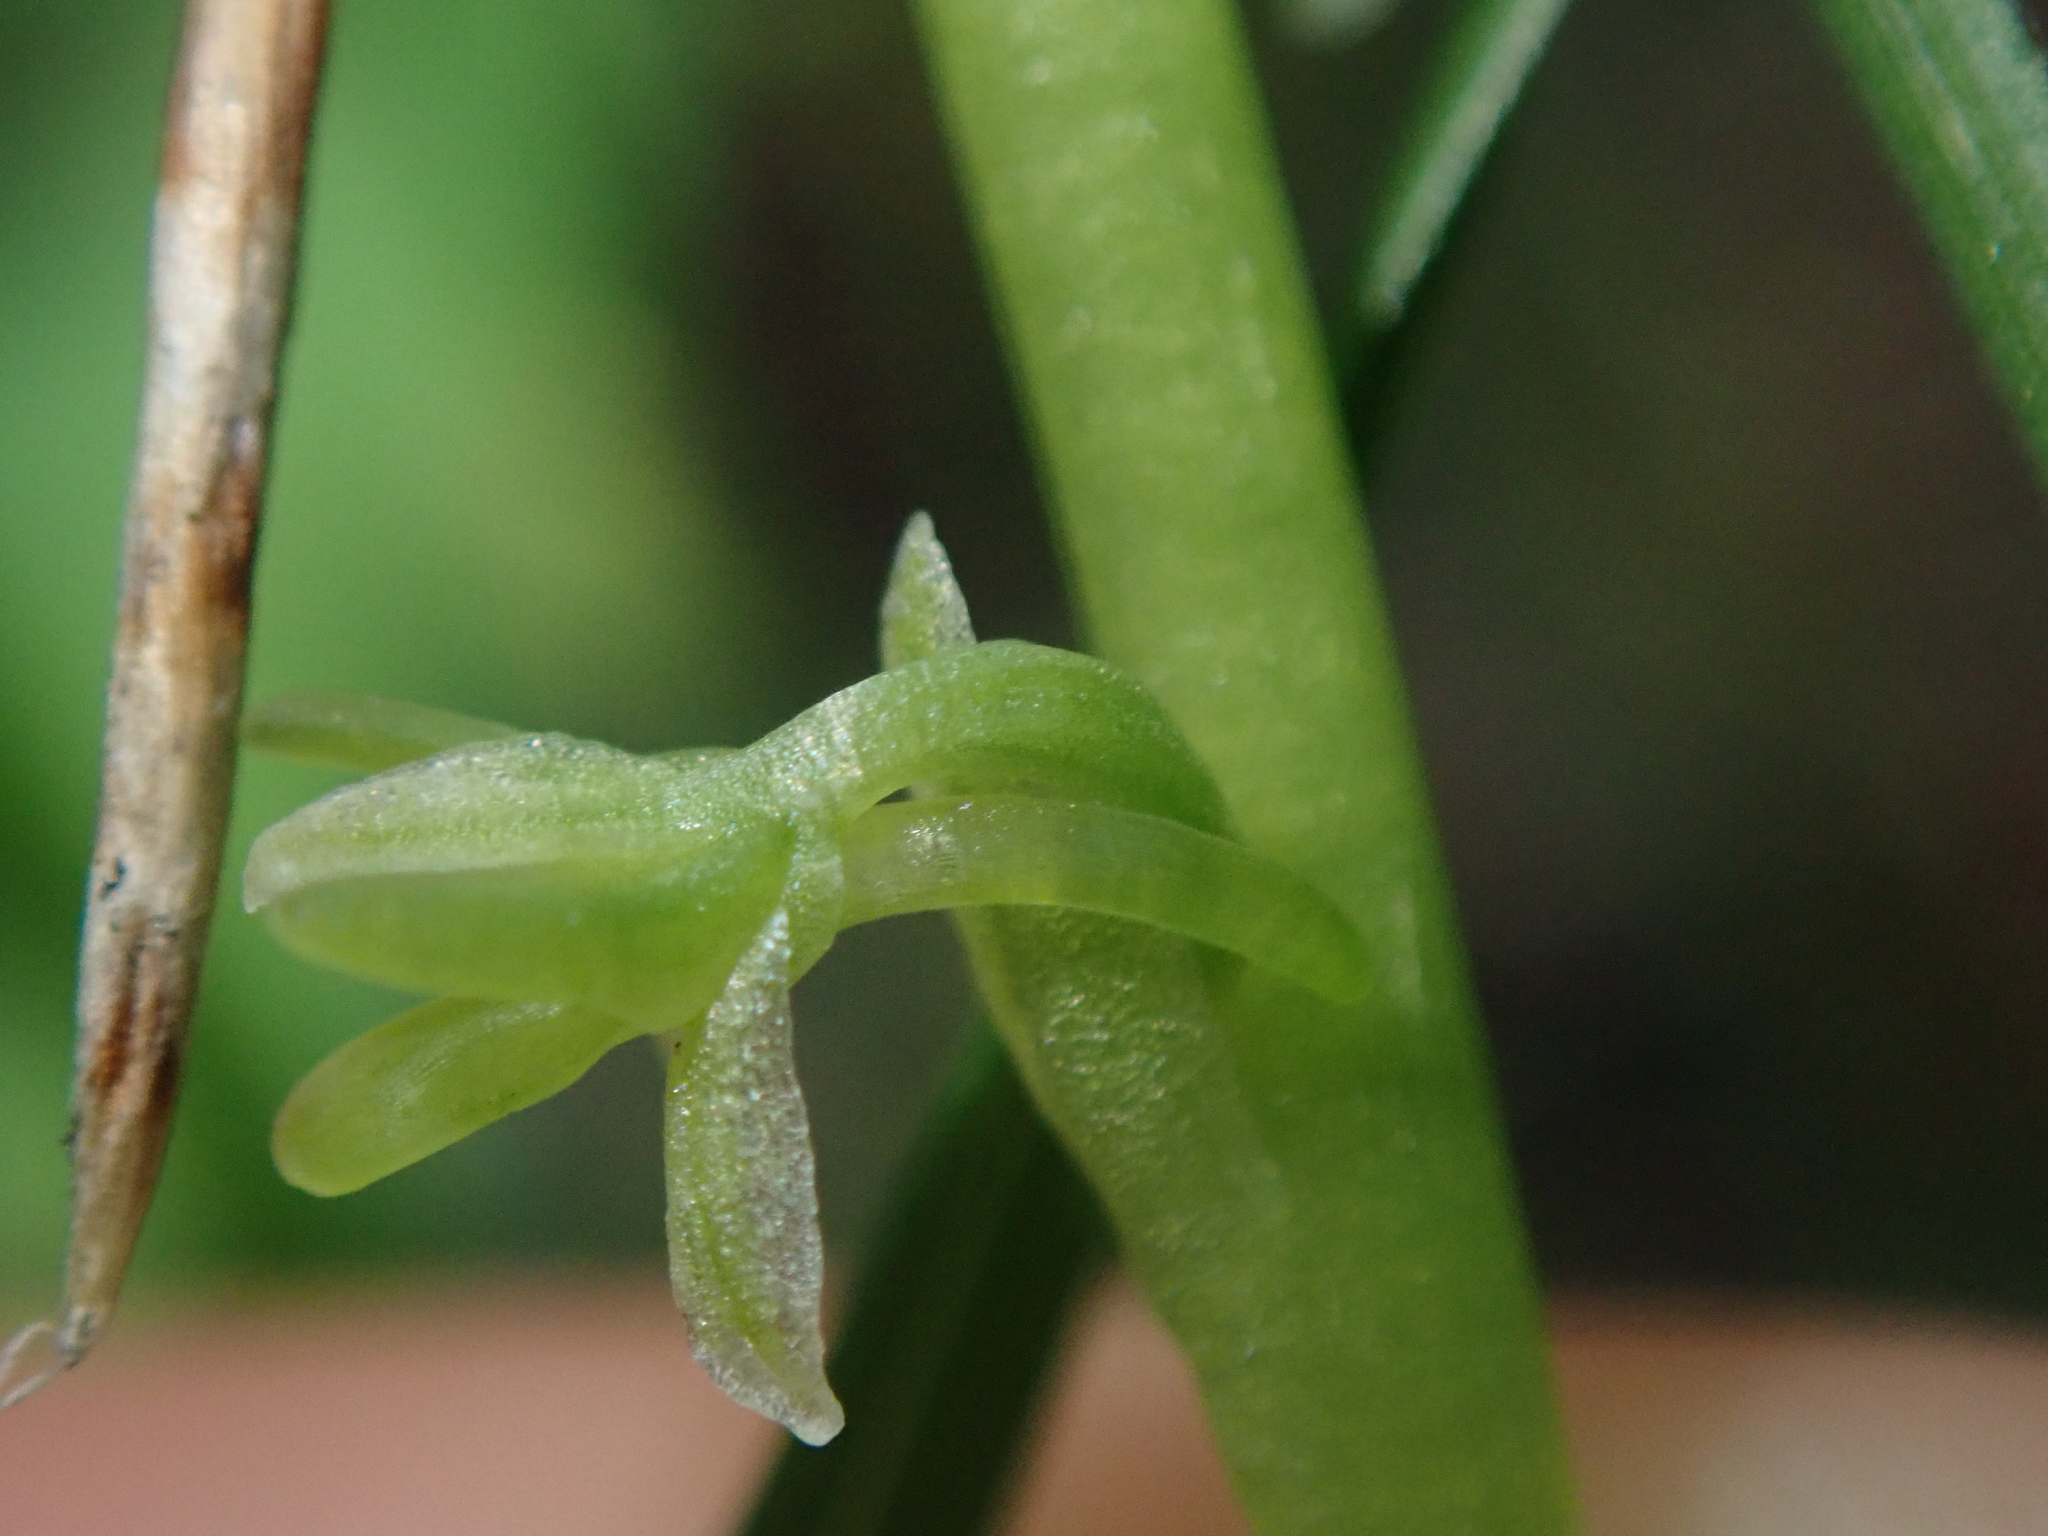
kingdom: Plantae
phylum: Tracheophyta
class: Liliopsida
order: Asparagales
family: Orchidaceae
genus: Platanthera
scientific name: Platanthera unalascensis
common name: Alaska bog orchid
